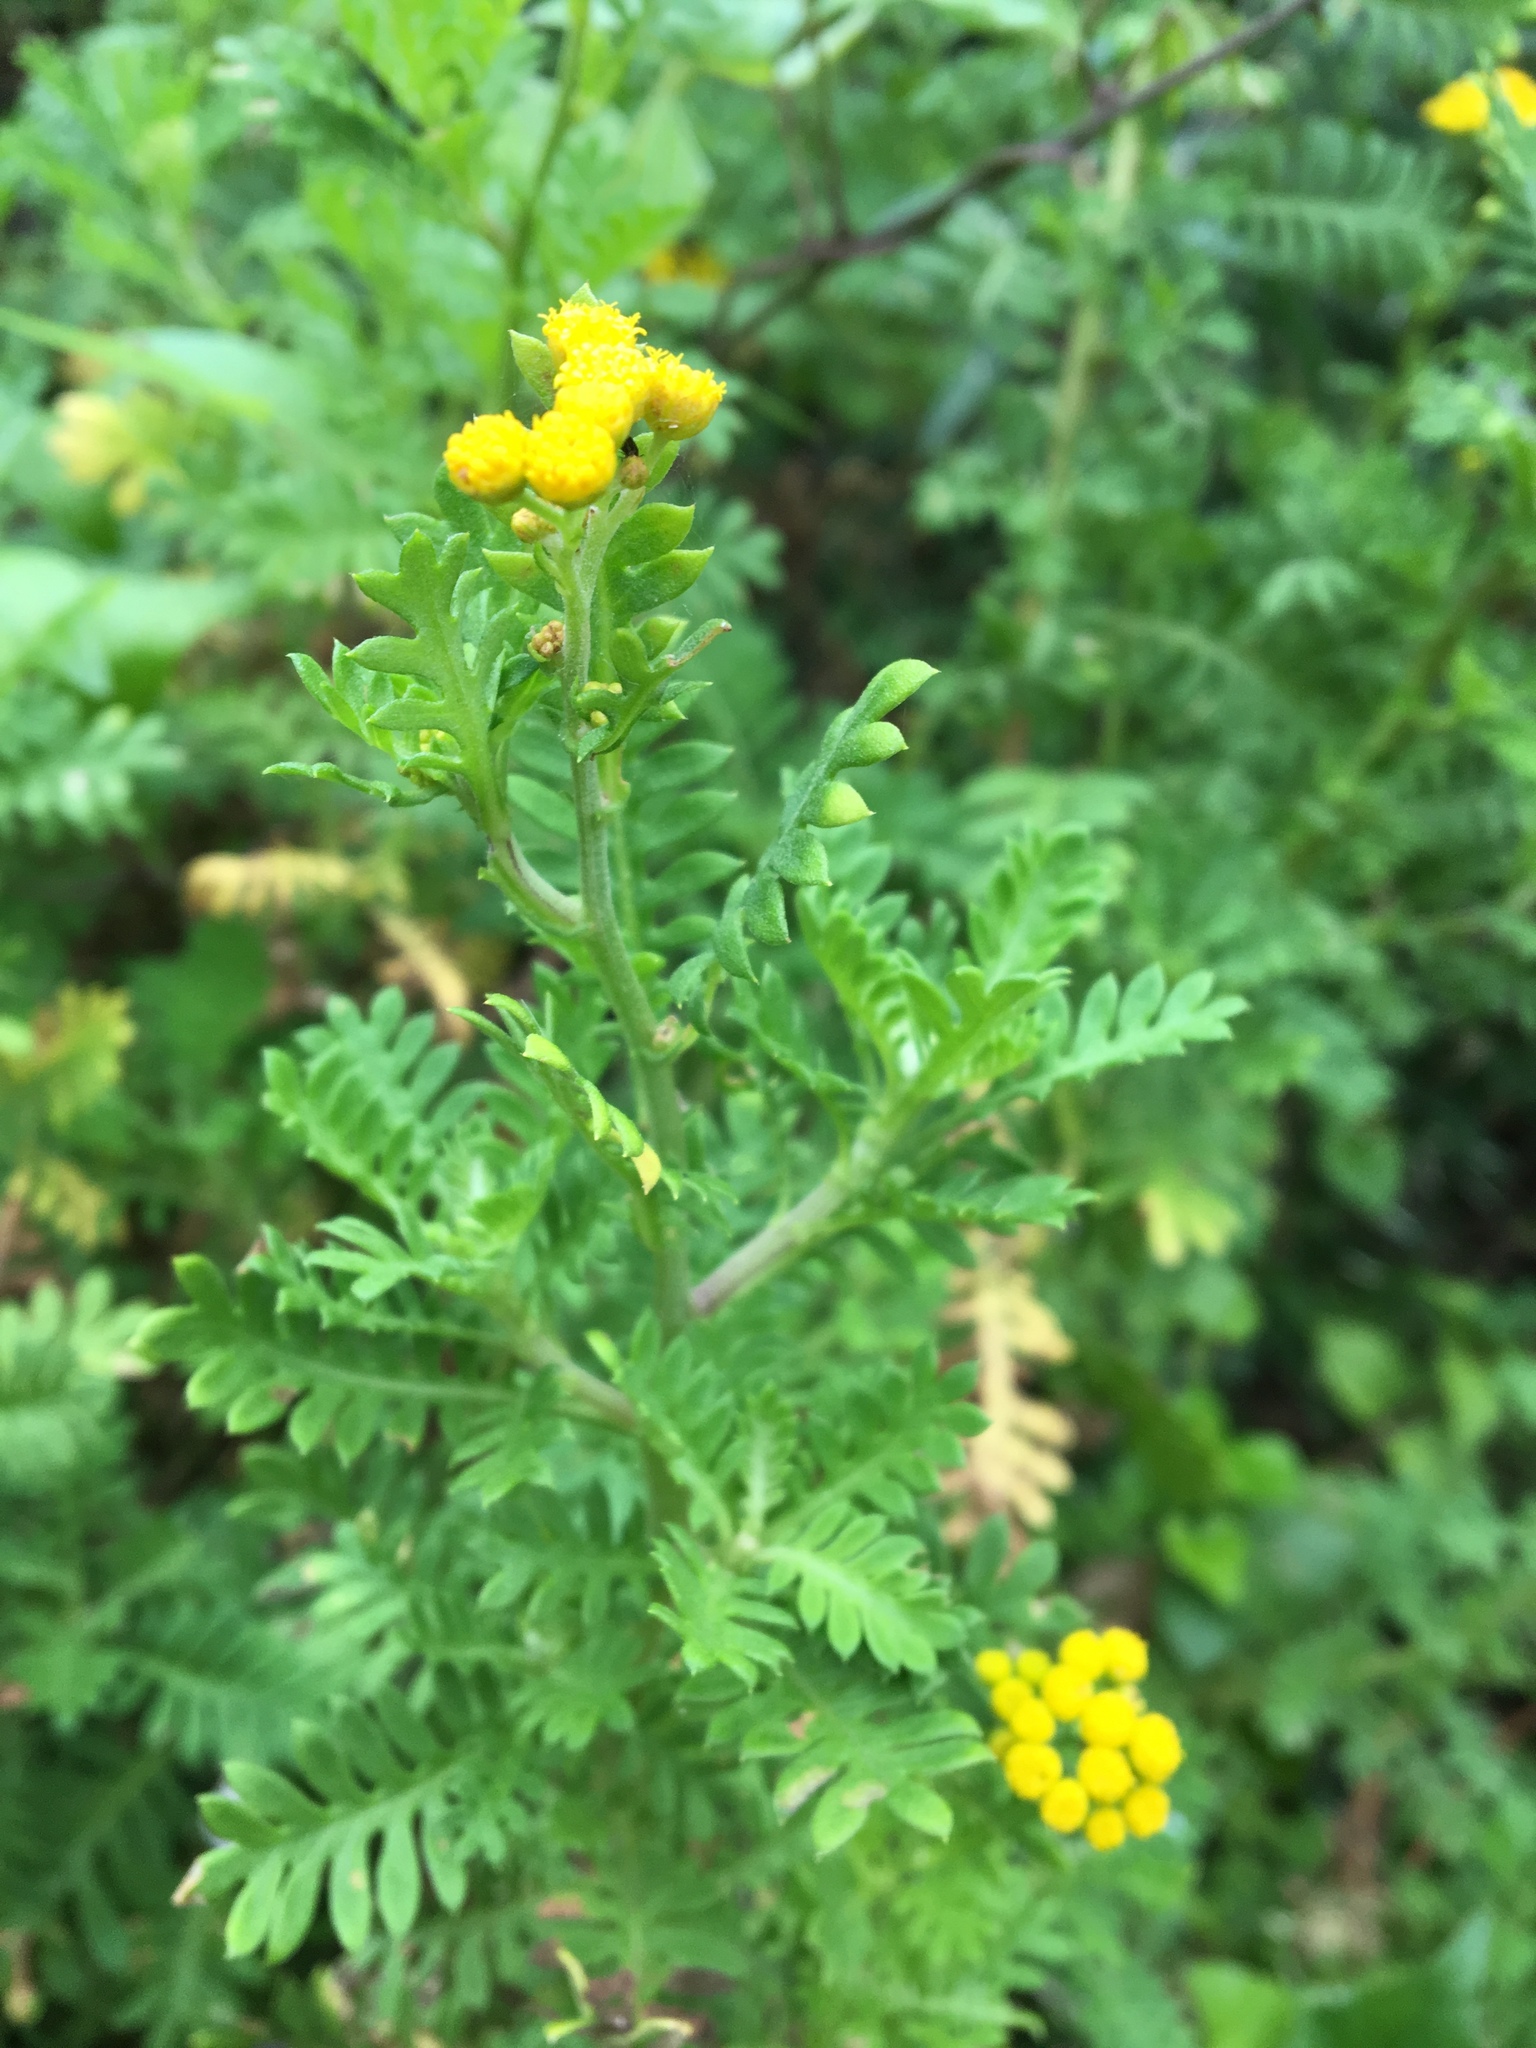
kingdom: Plantae
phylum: Tracheophyta
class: Magnoliopsida
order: Asterales
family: Asteraceae
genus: Hippia
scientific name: Hippia frutescens
